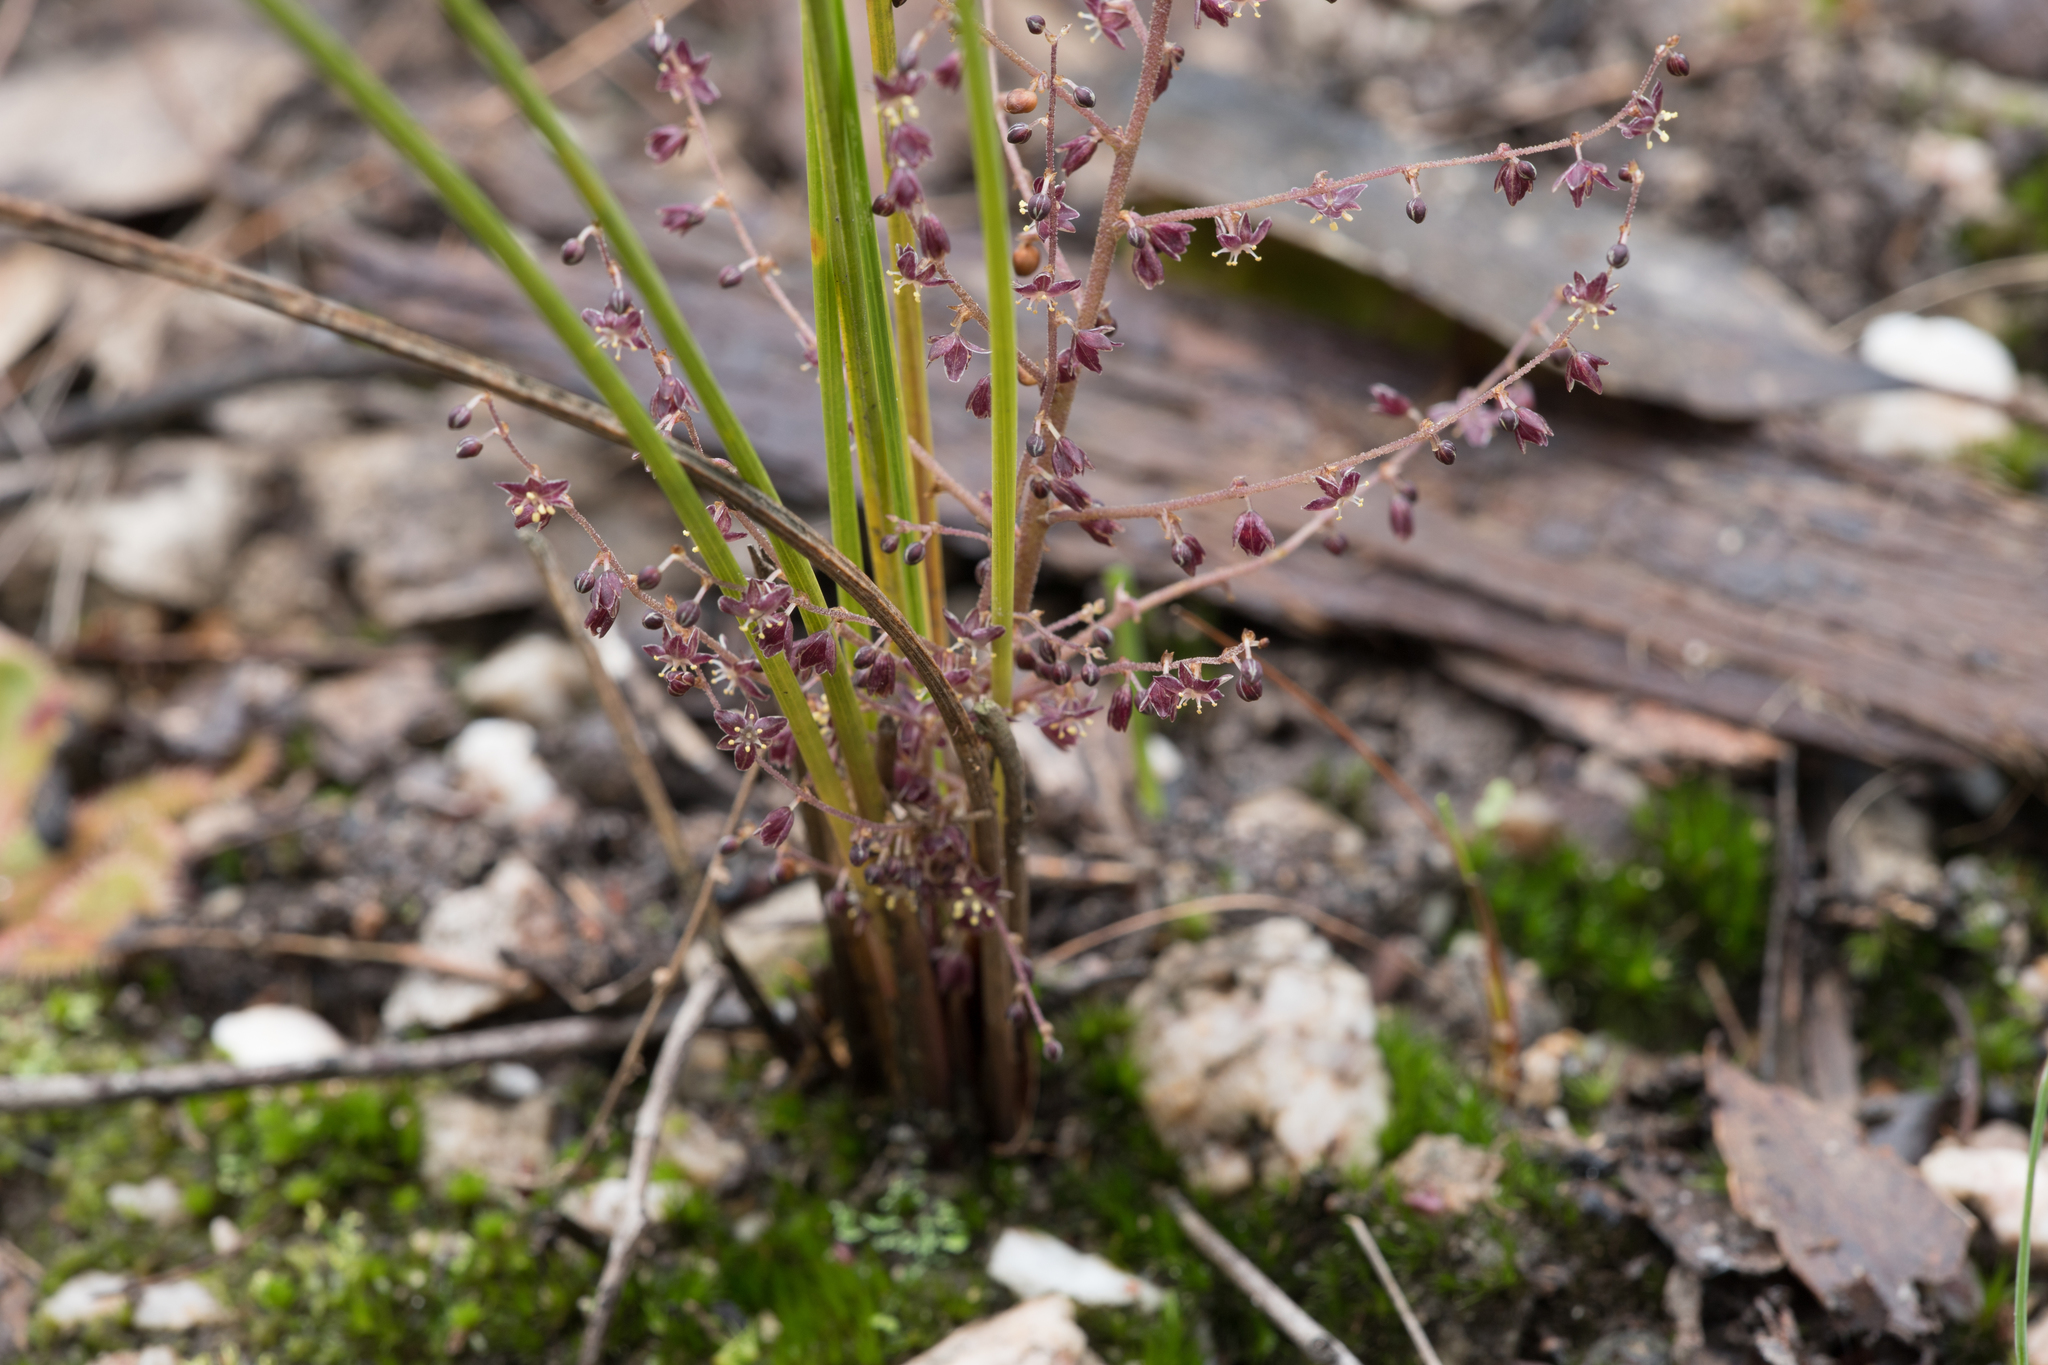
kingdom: Plantae
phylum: Tracheophyta
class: Liliopsida
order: Asparagales
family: Asparagaceae
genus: Lomandra
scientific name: Lomandra micrantha
